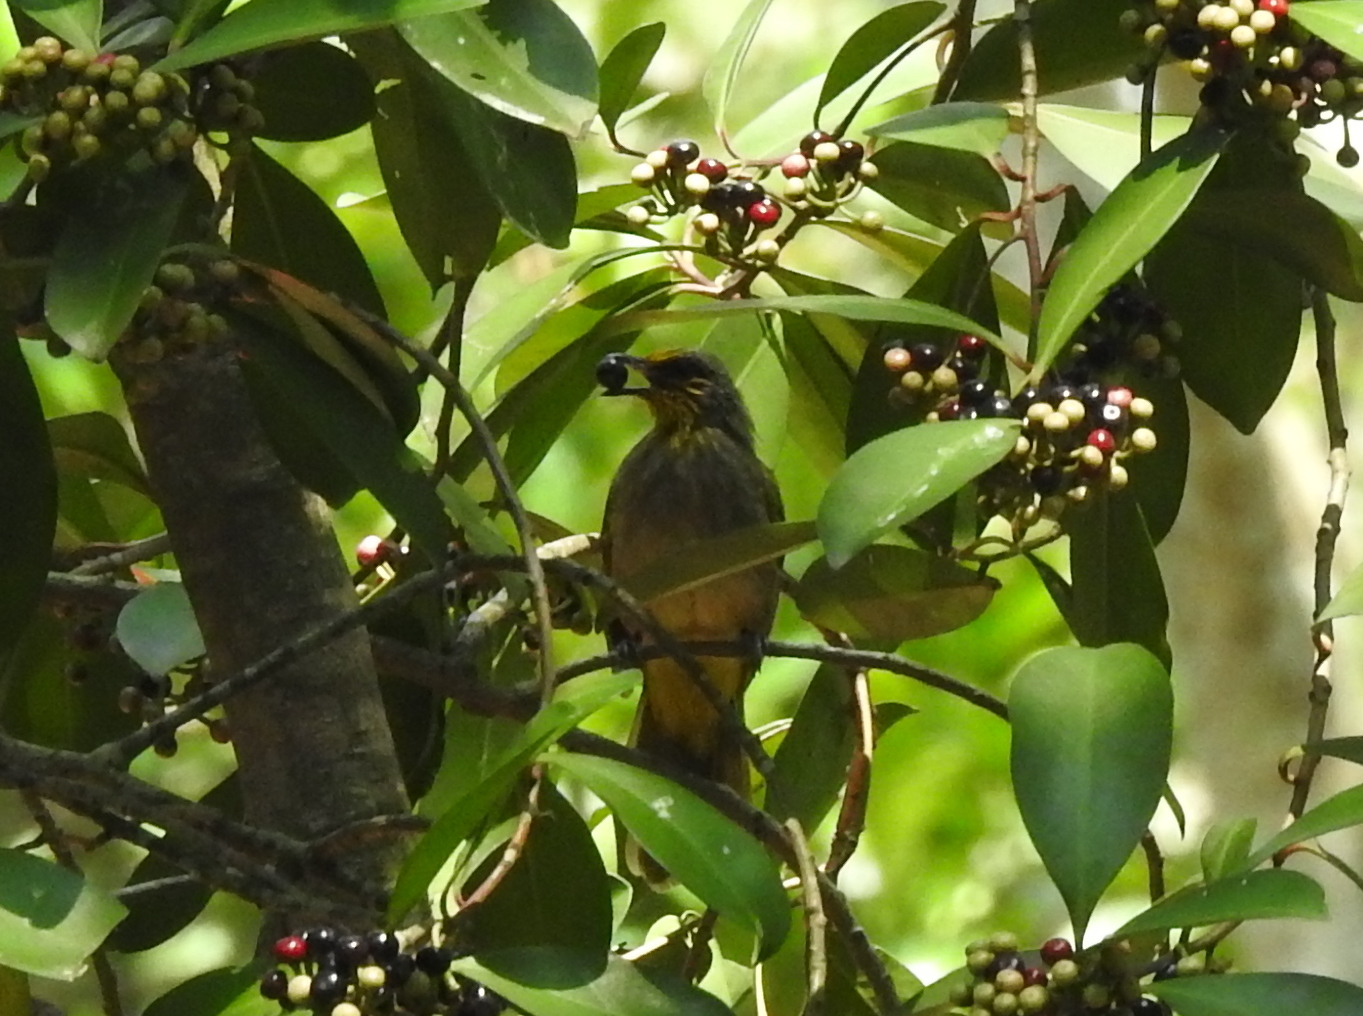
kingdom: Animalia
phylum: Chordata
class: Aves
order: Passeriformes
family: Pycnonotidae
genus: Pycnonotus
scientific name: Pycnonotus finlaysoni
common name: Stripe-throated bulbul
